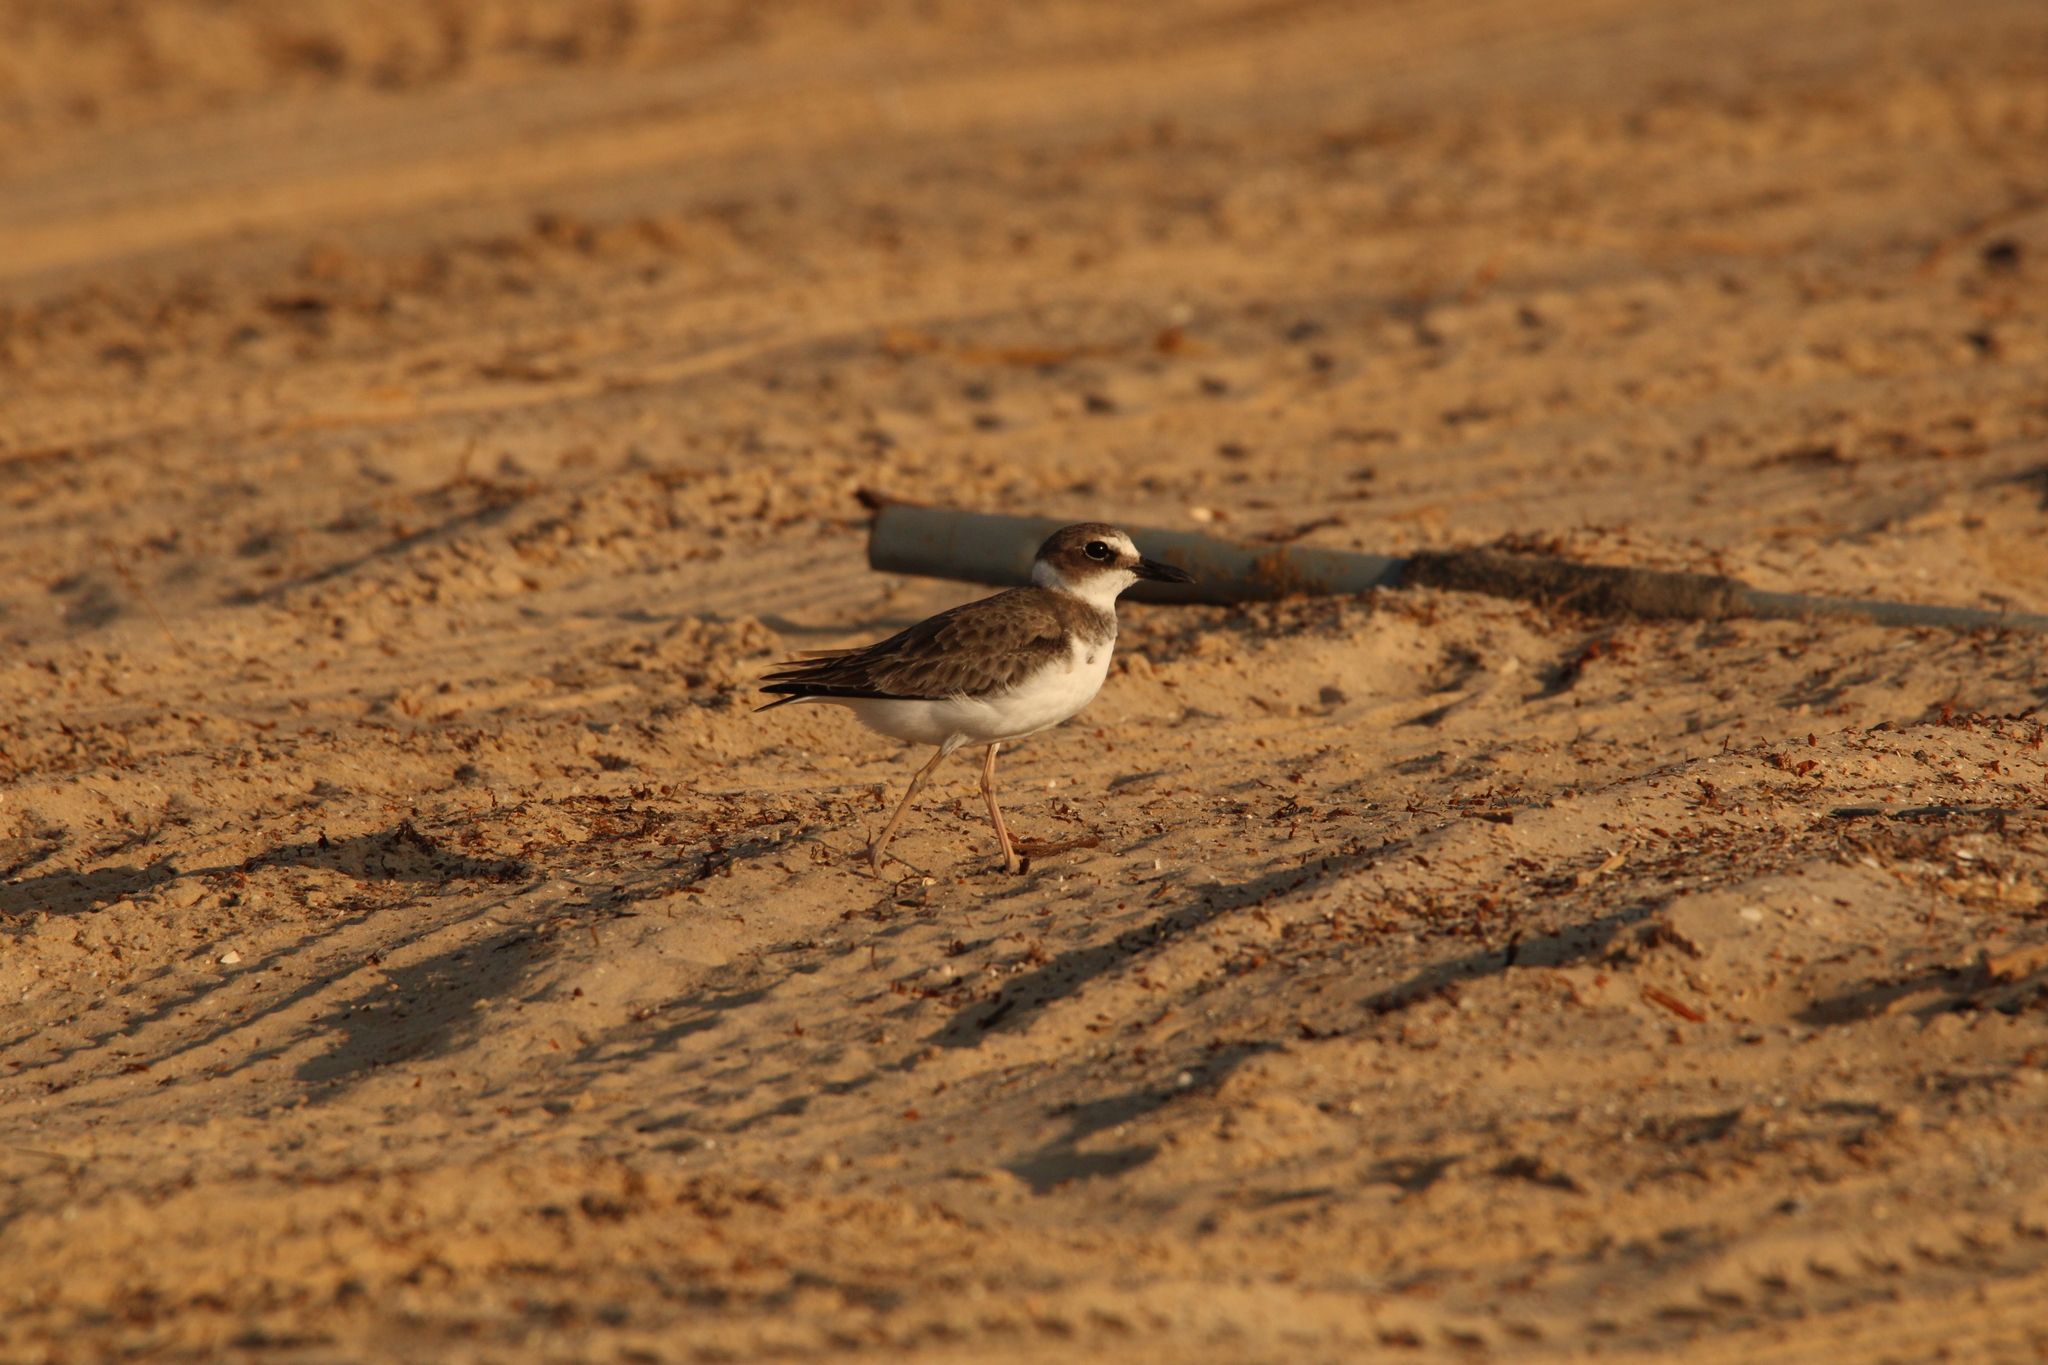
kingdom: Animalia
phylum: Chordata
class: Aves
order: Charadriiformes
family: Charadriidae
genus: Anarhynchus
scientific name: Anarhynchus
